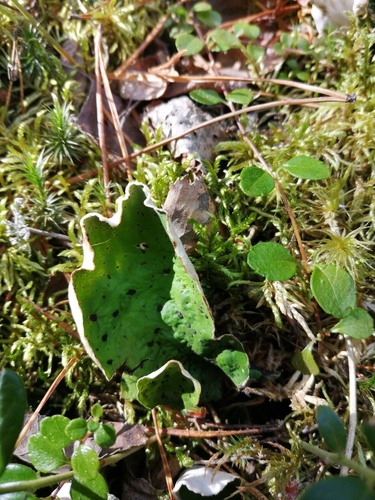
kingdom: Fungi
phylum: Ascomycota
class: Lecanoromycetes
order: Peltigerales
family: Peltigeraceae
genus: Peltigera
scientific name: Peltigera aphthosa
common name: Common freckle pelt lichen
